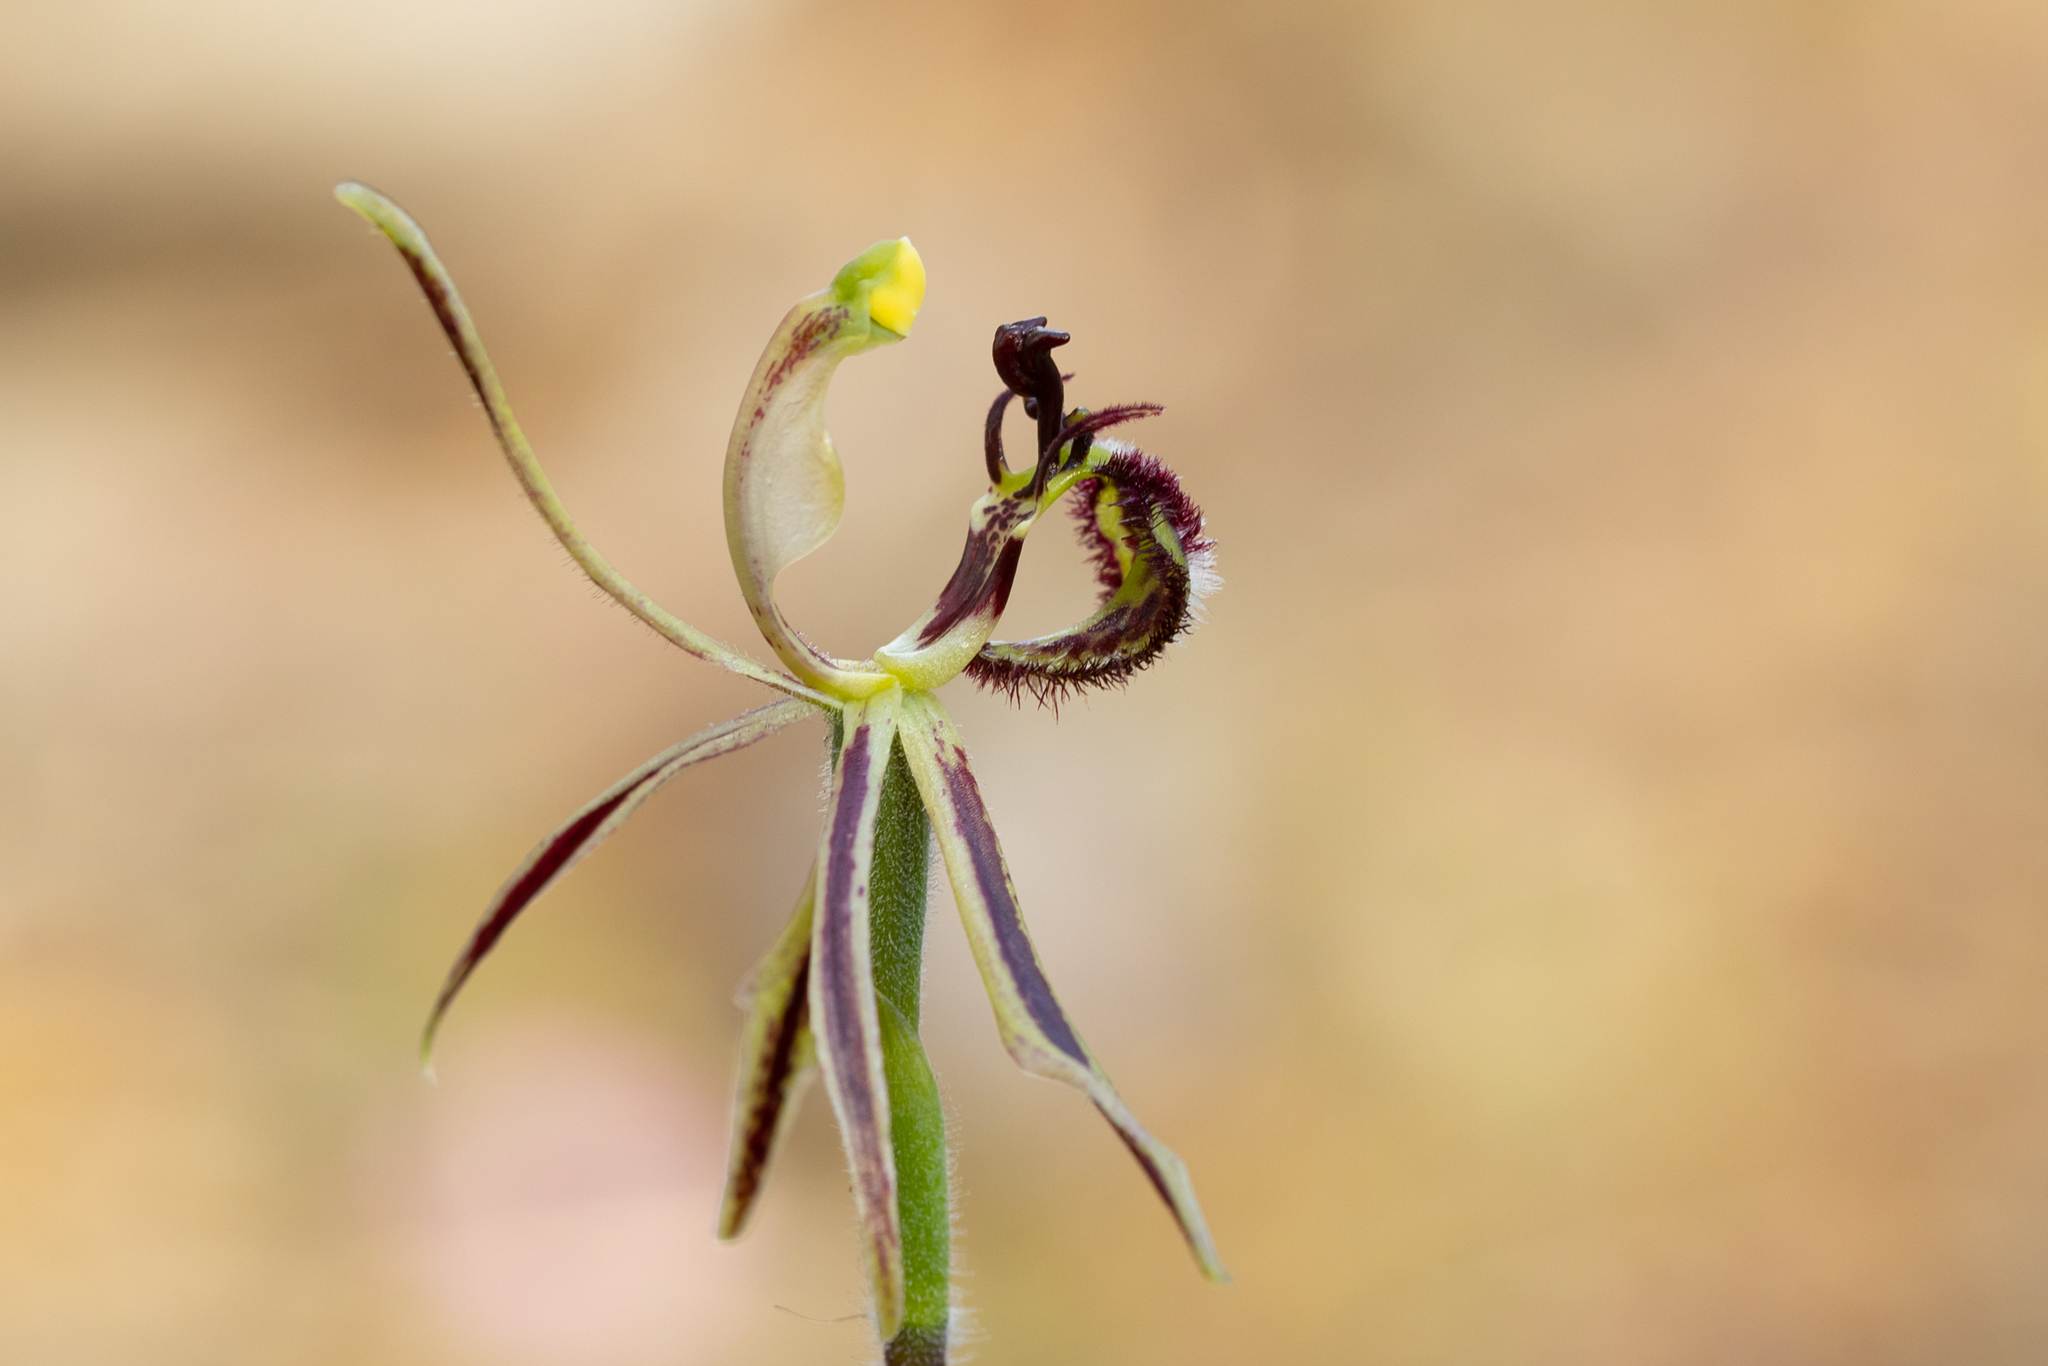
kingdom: Plantae
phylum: Tracheophyta
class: Liliopsida
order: Asparagales
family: Orchidaceae
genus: Caladenia
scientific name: Caladenia barbarossa
